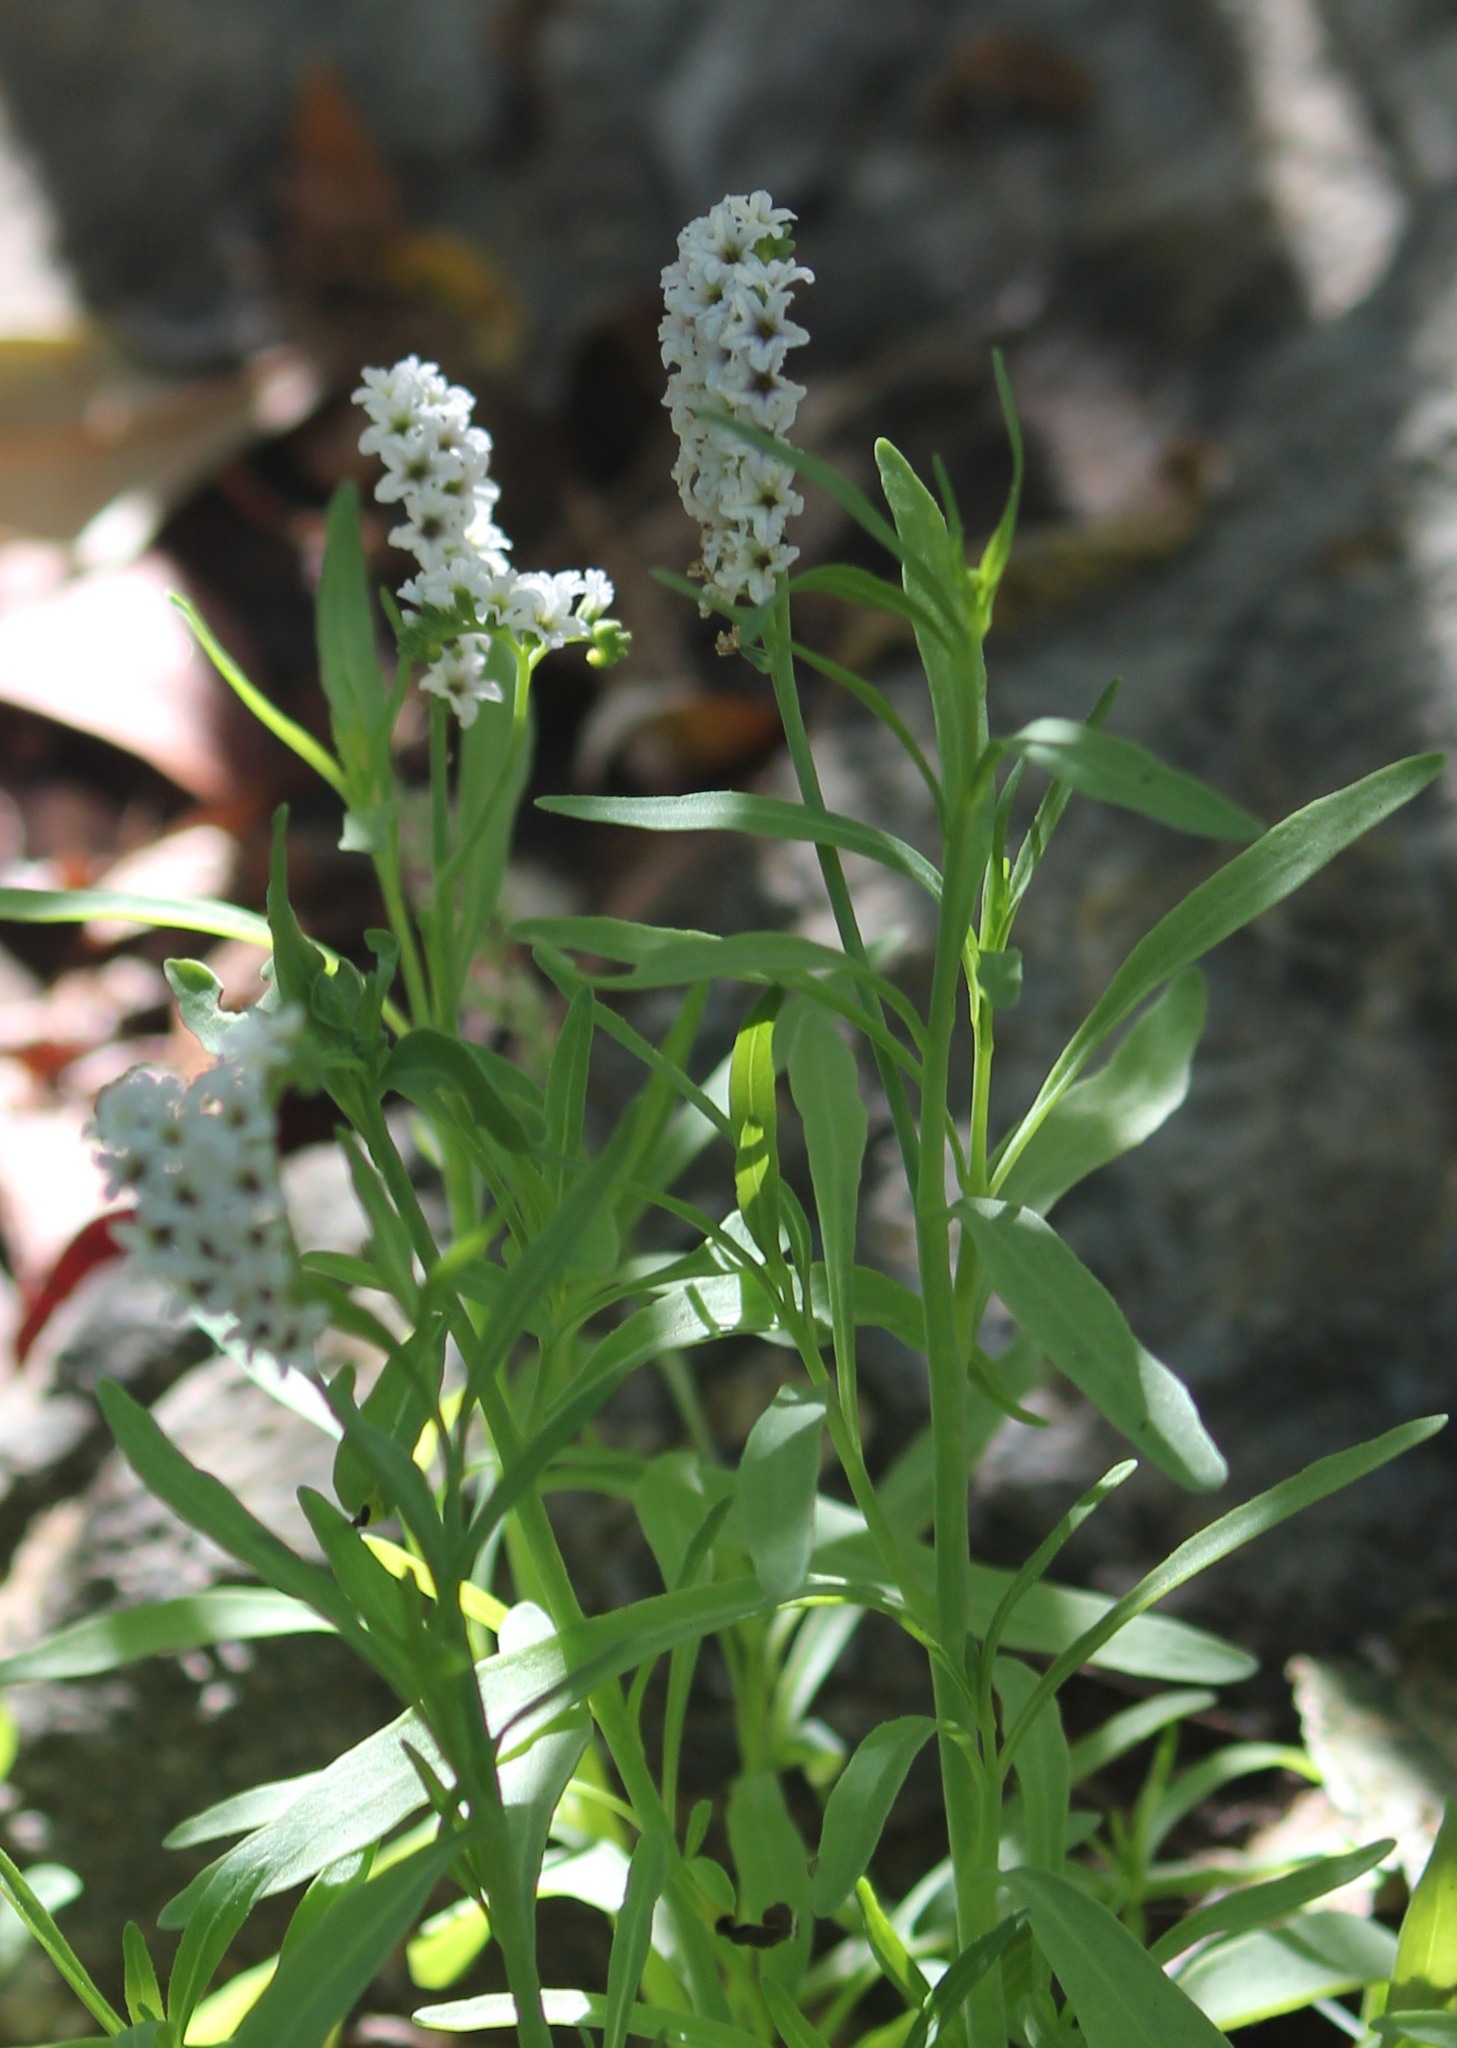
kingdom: Plantae
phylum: Tracheophyta
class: Magnoliopsida
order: Boraginales
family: Heliotropiaceae
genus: Heliotropium
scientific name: Heliotropium curassavicum
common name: Seaside heliotrope
